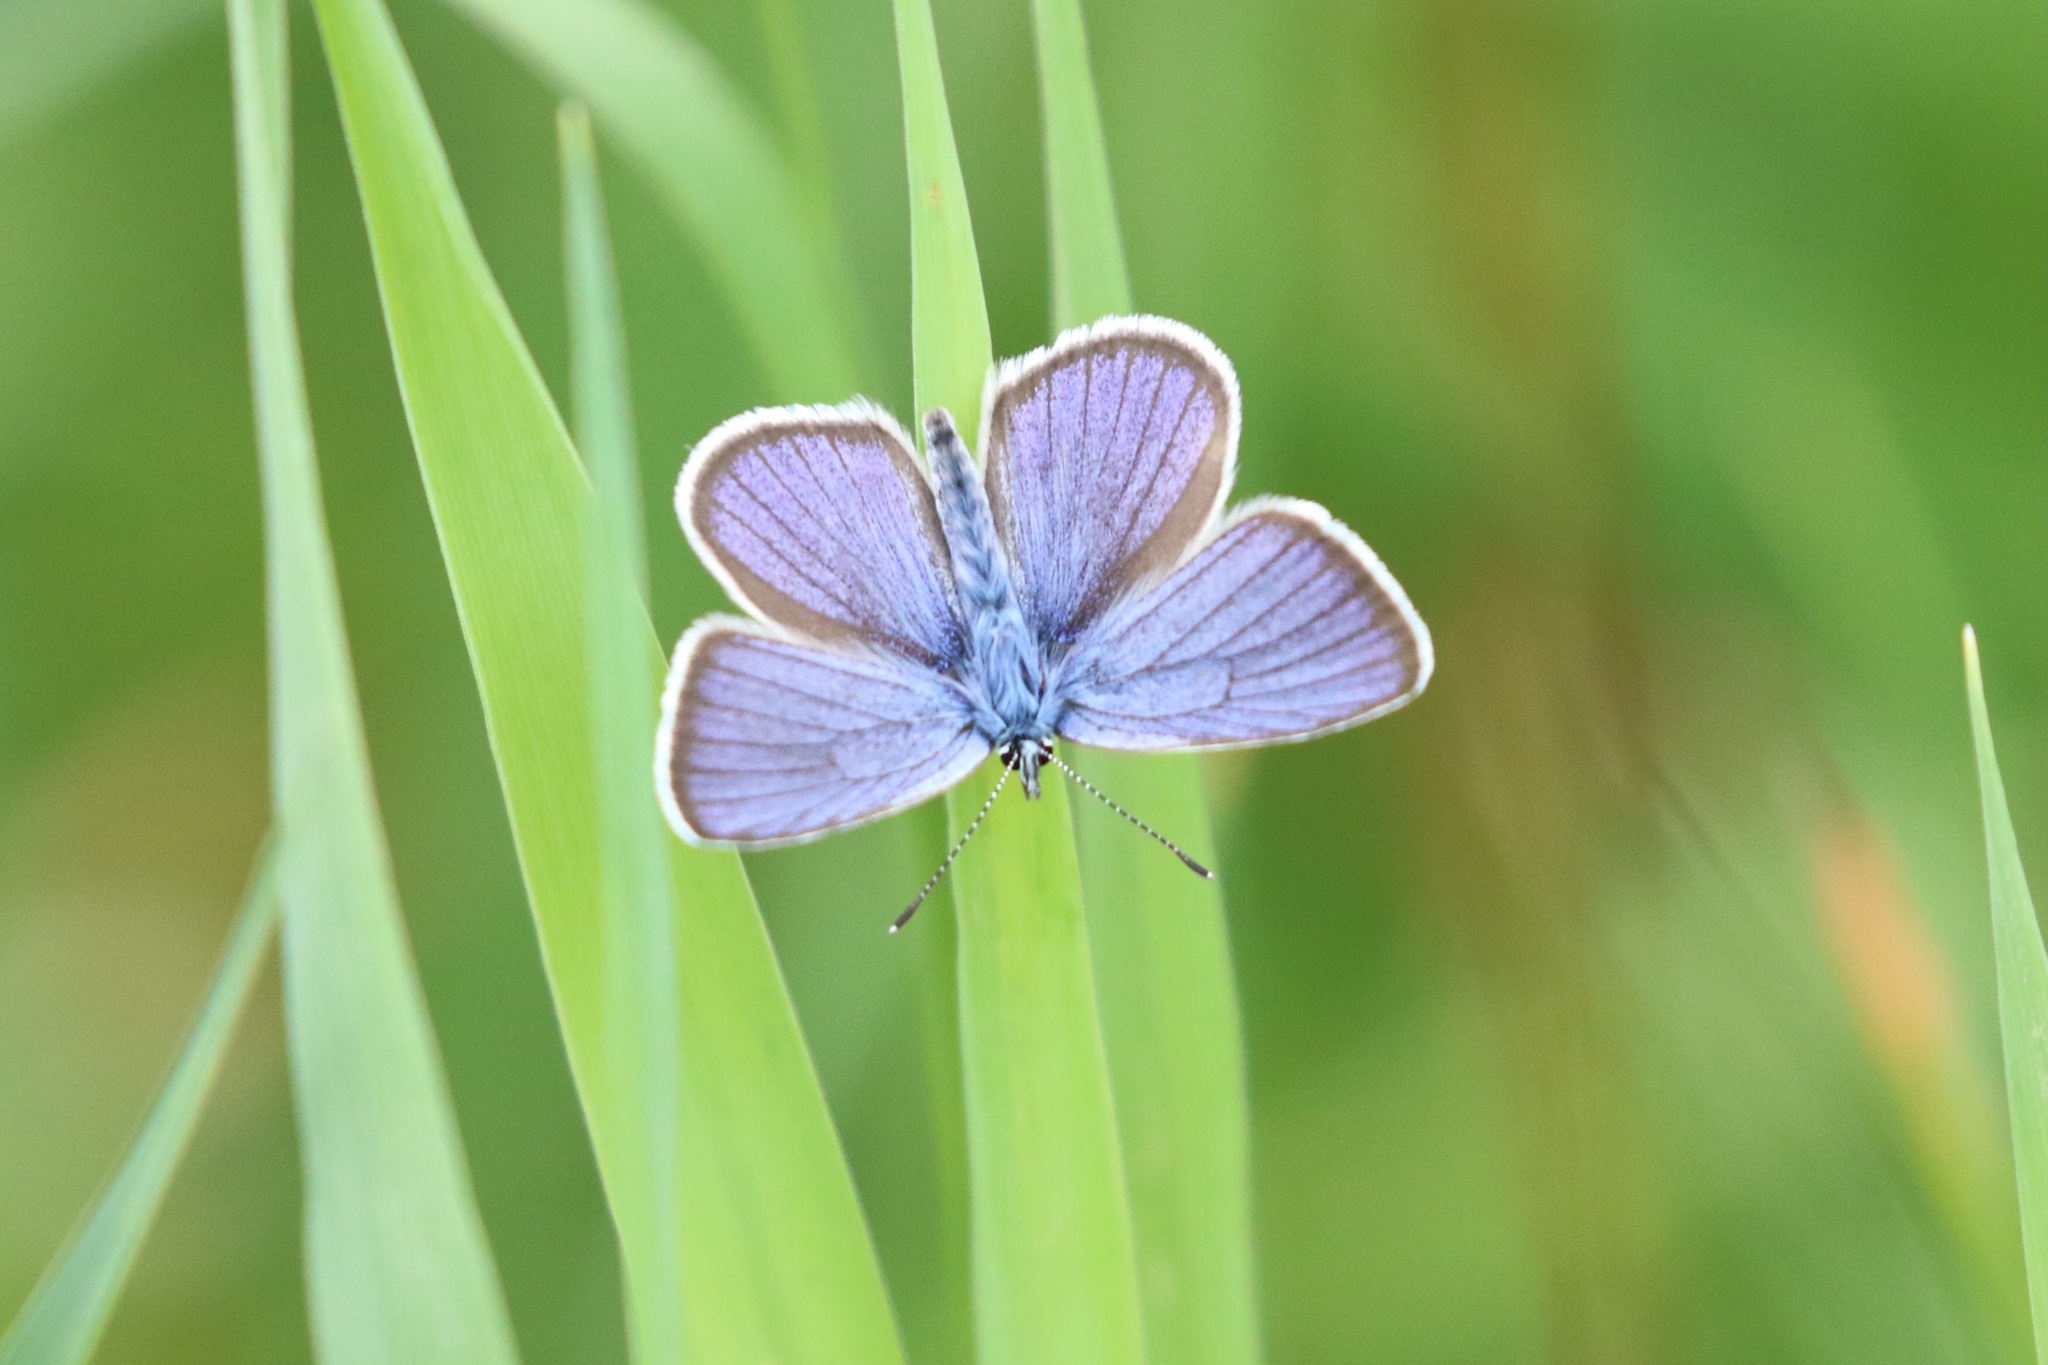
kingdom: Animalia
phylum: Arthropoda
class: Insecta
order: Lepidoptera
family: Lycaenidae
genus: Cyaniris
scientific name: Cyaniris semiargus
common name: Mazarine blue
